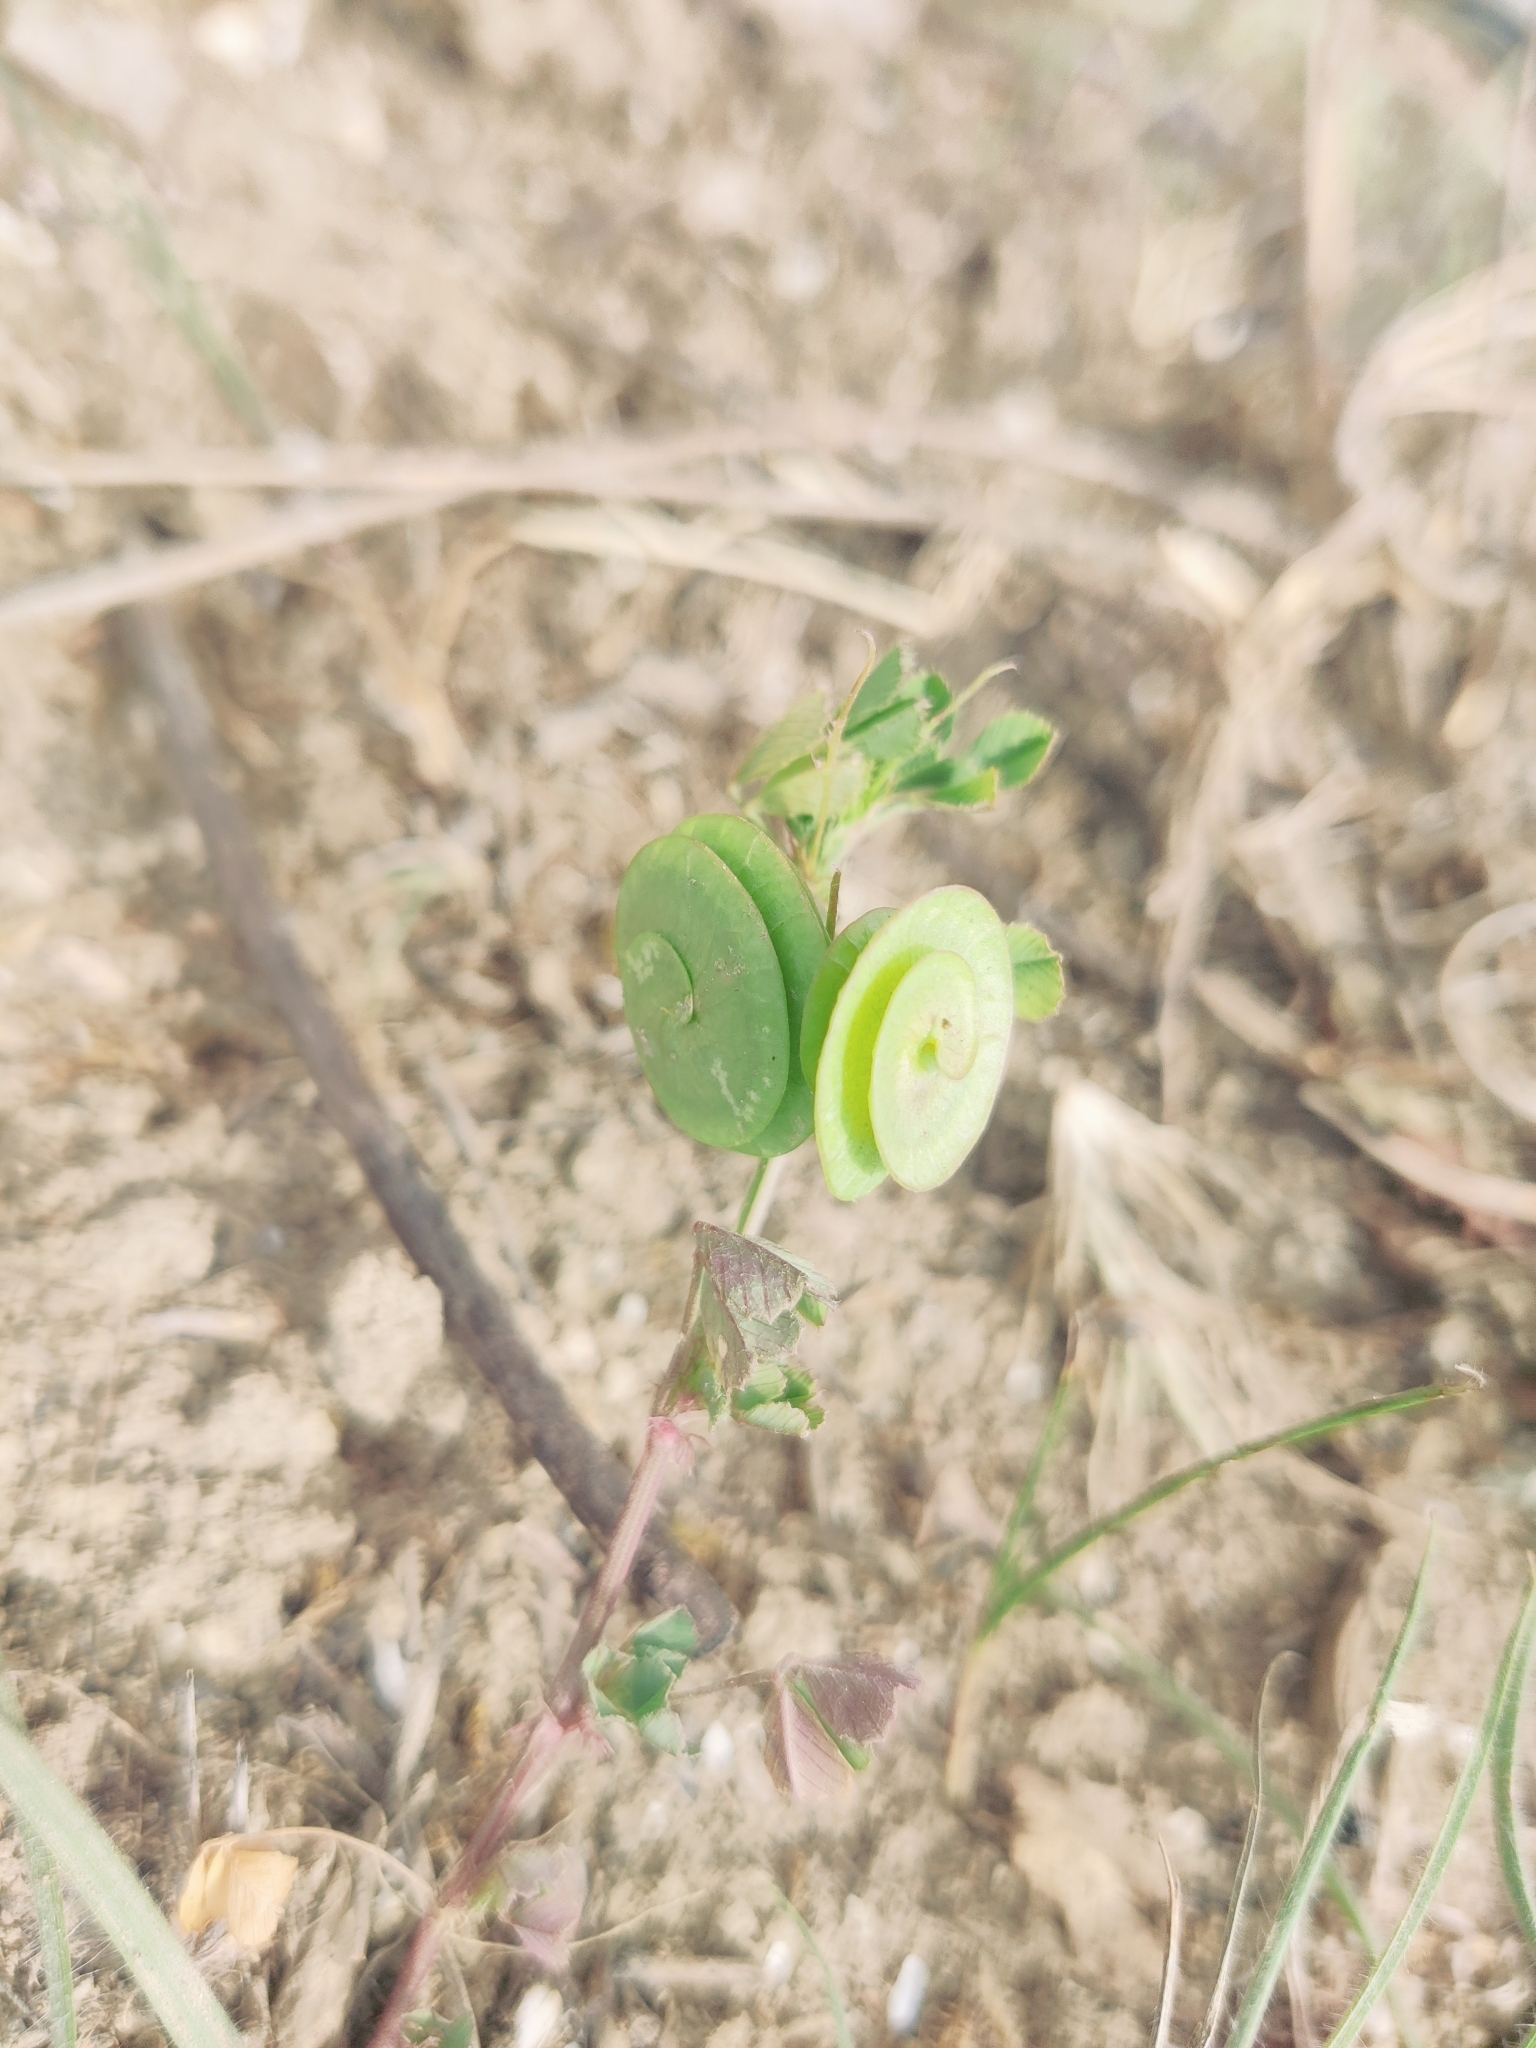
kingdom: Plantae
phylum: Tracheophyta
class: Magnoliopsida
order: Fabales
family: Fabaceae
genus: Medicago
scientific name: Medicago orbicularis
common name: Button medick
